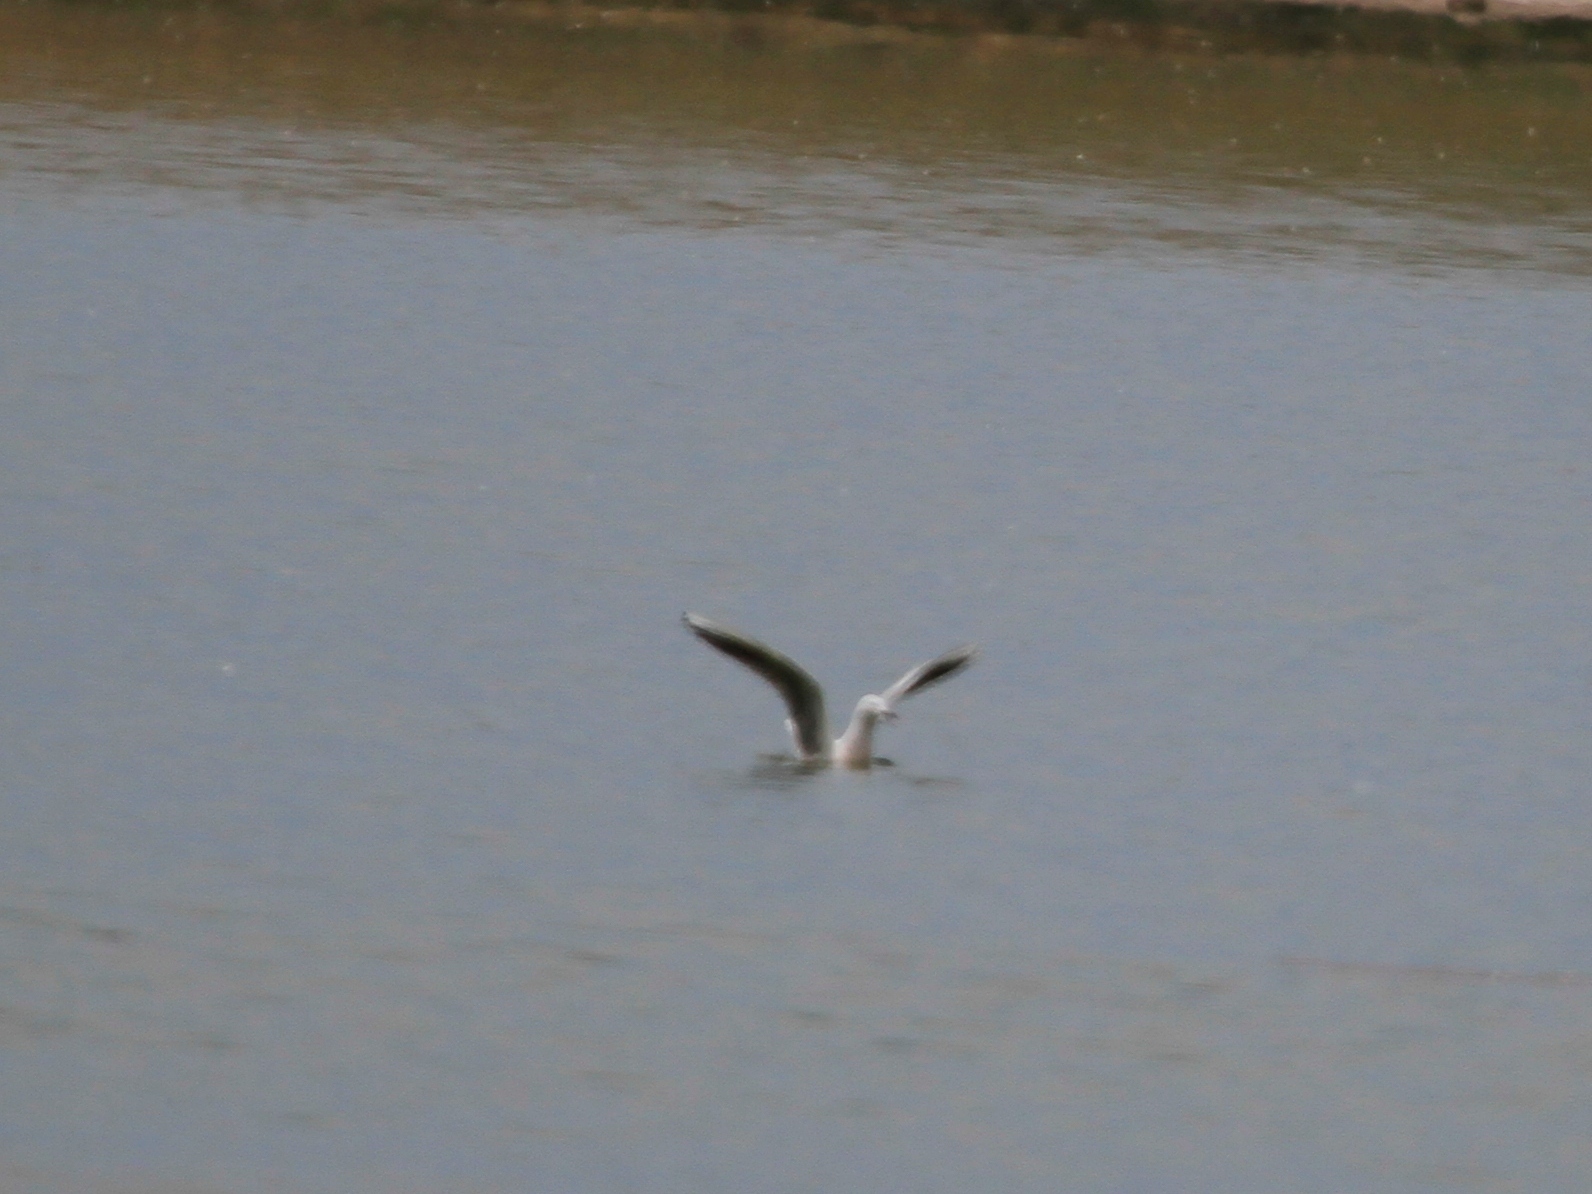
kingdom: Animalia
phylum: Chordata
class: Aves
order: Charadriiformes
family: Laridae
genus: Chroicocephalus
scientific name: Chroicocephalus genei
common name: Slender-billed gull
